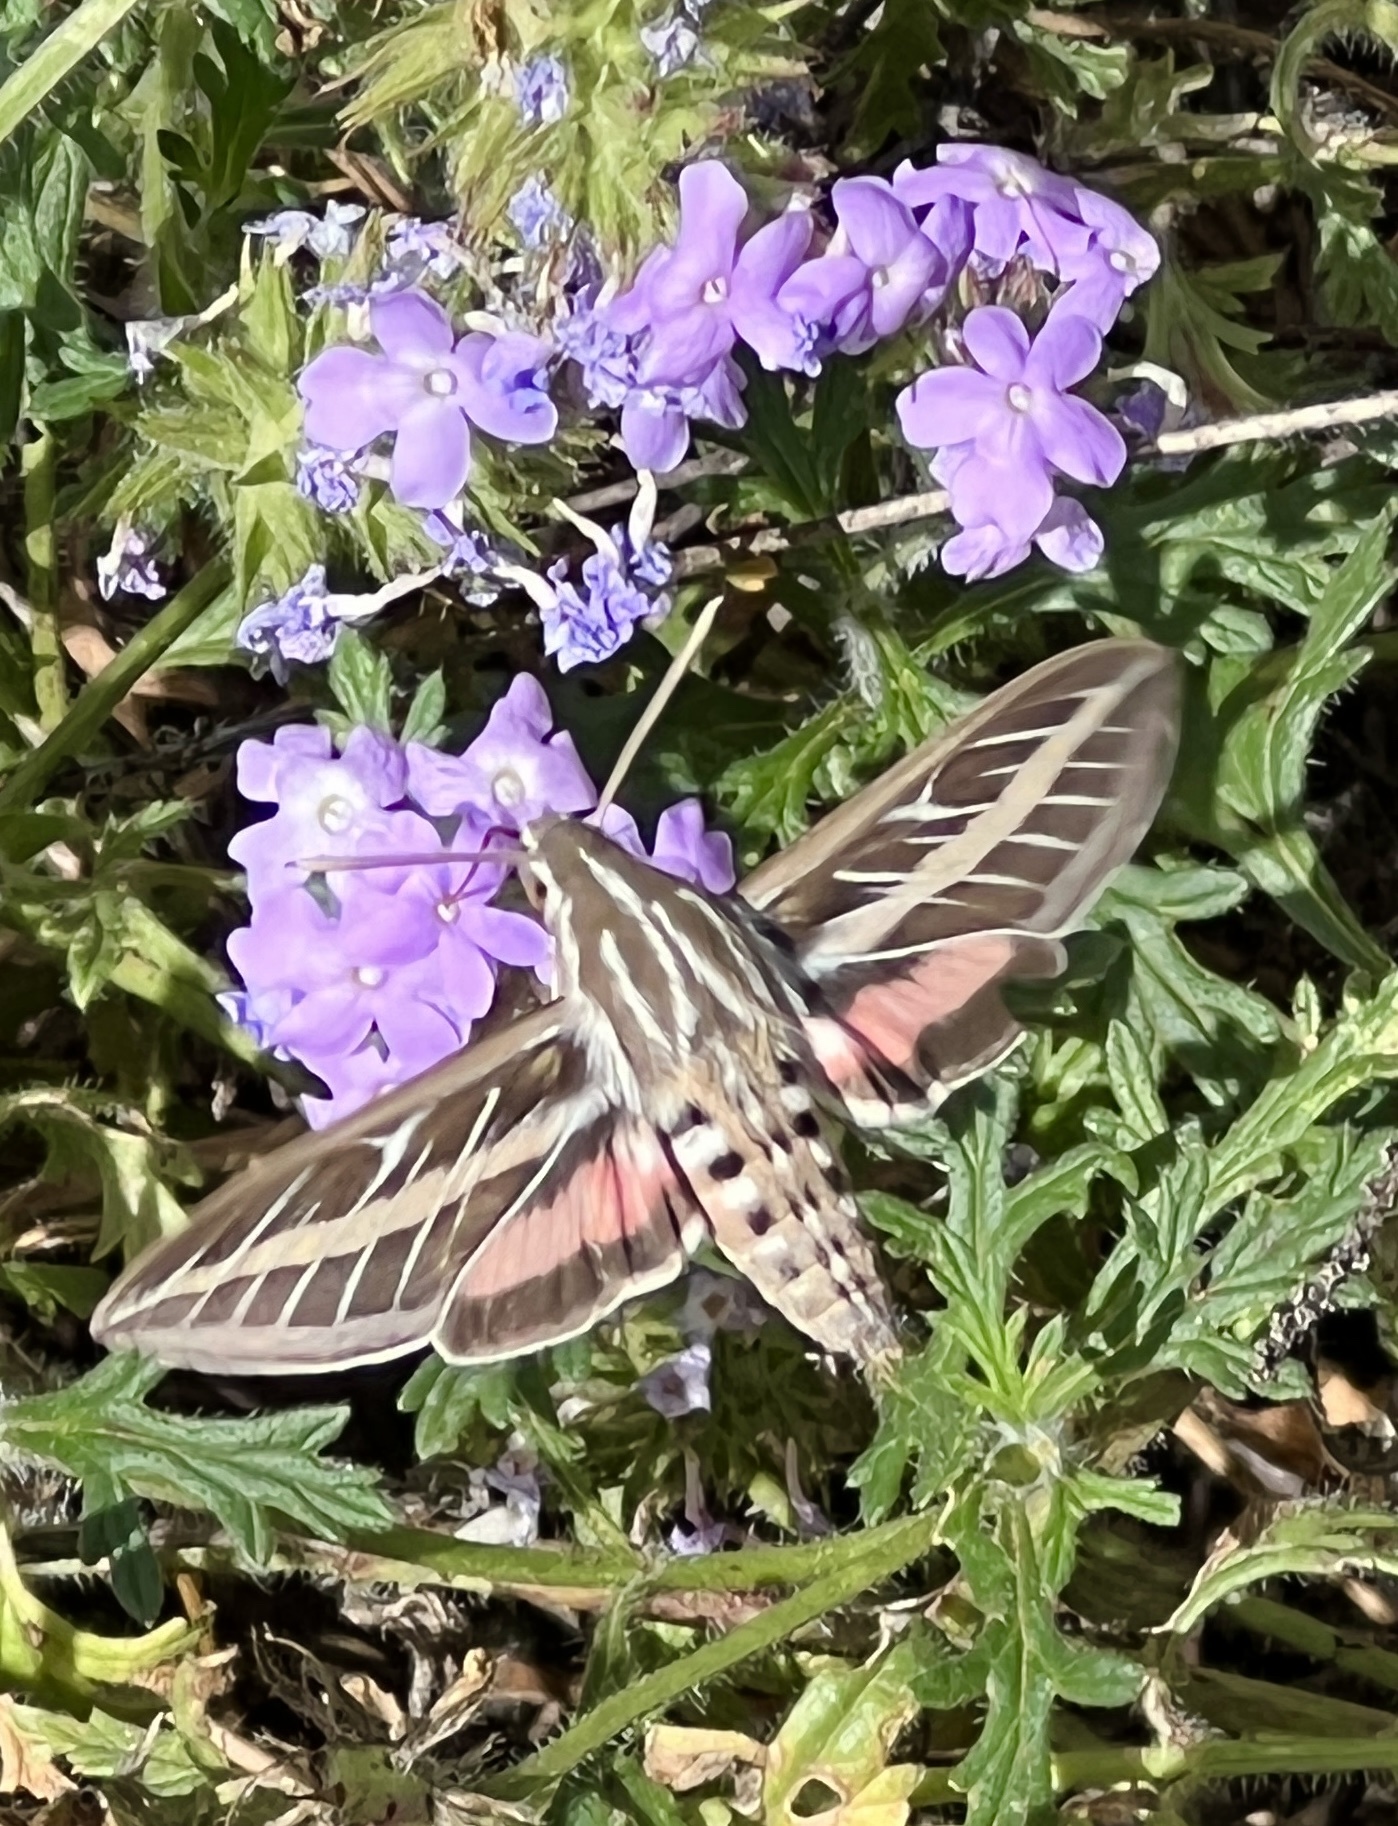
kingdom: Animalia
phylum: Arthropoda
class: Insecta
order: Lepidoptera
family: Sphingidae
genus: Hyles
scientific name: Hyles lineata
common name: White-lined sphinx
